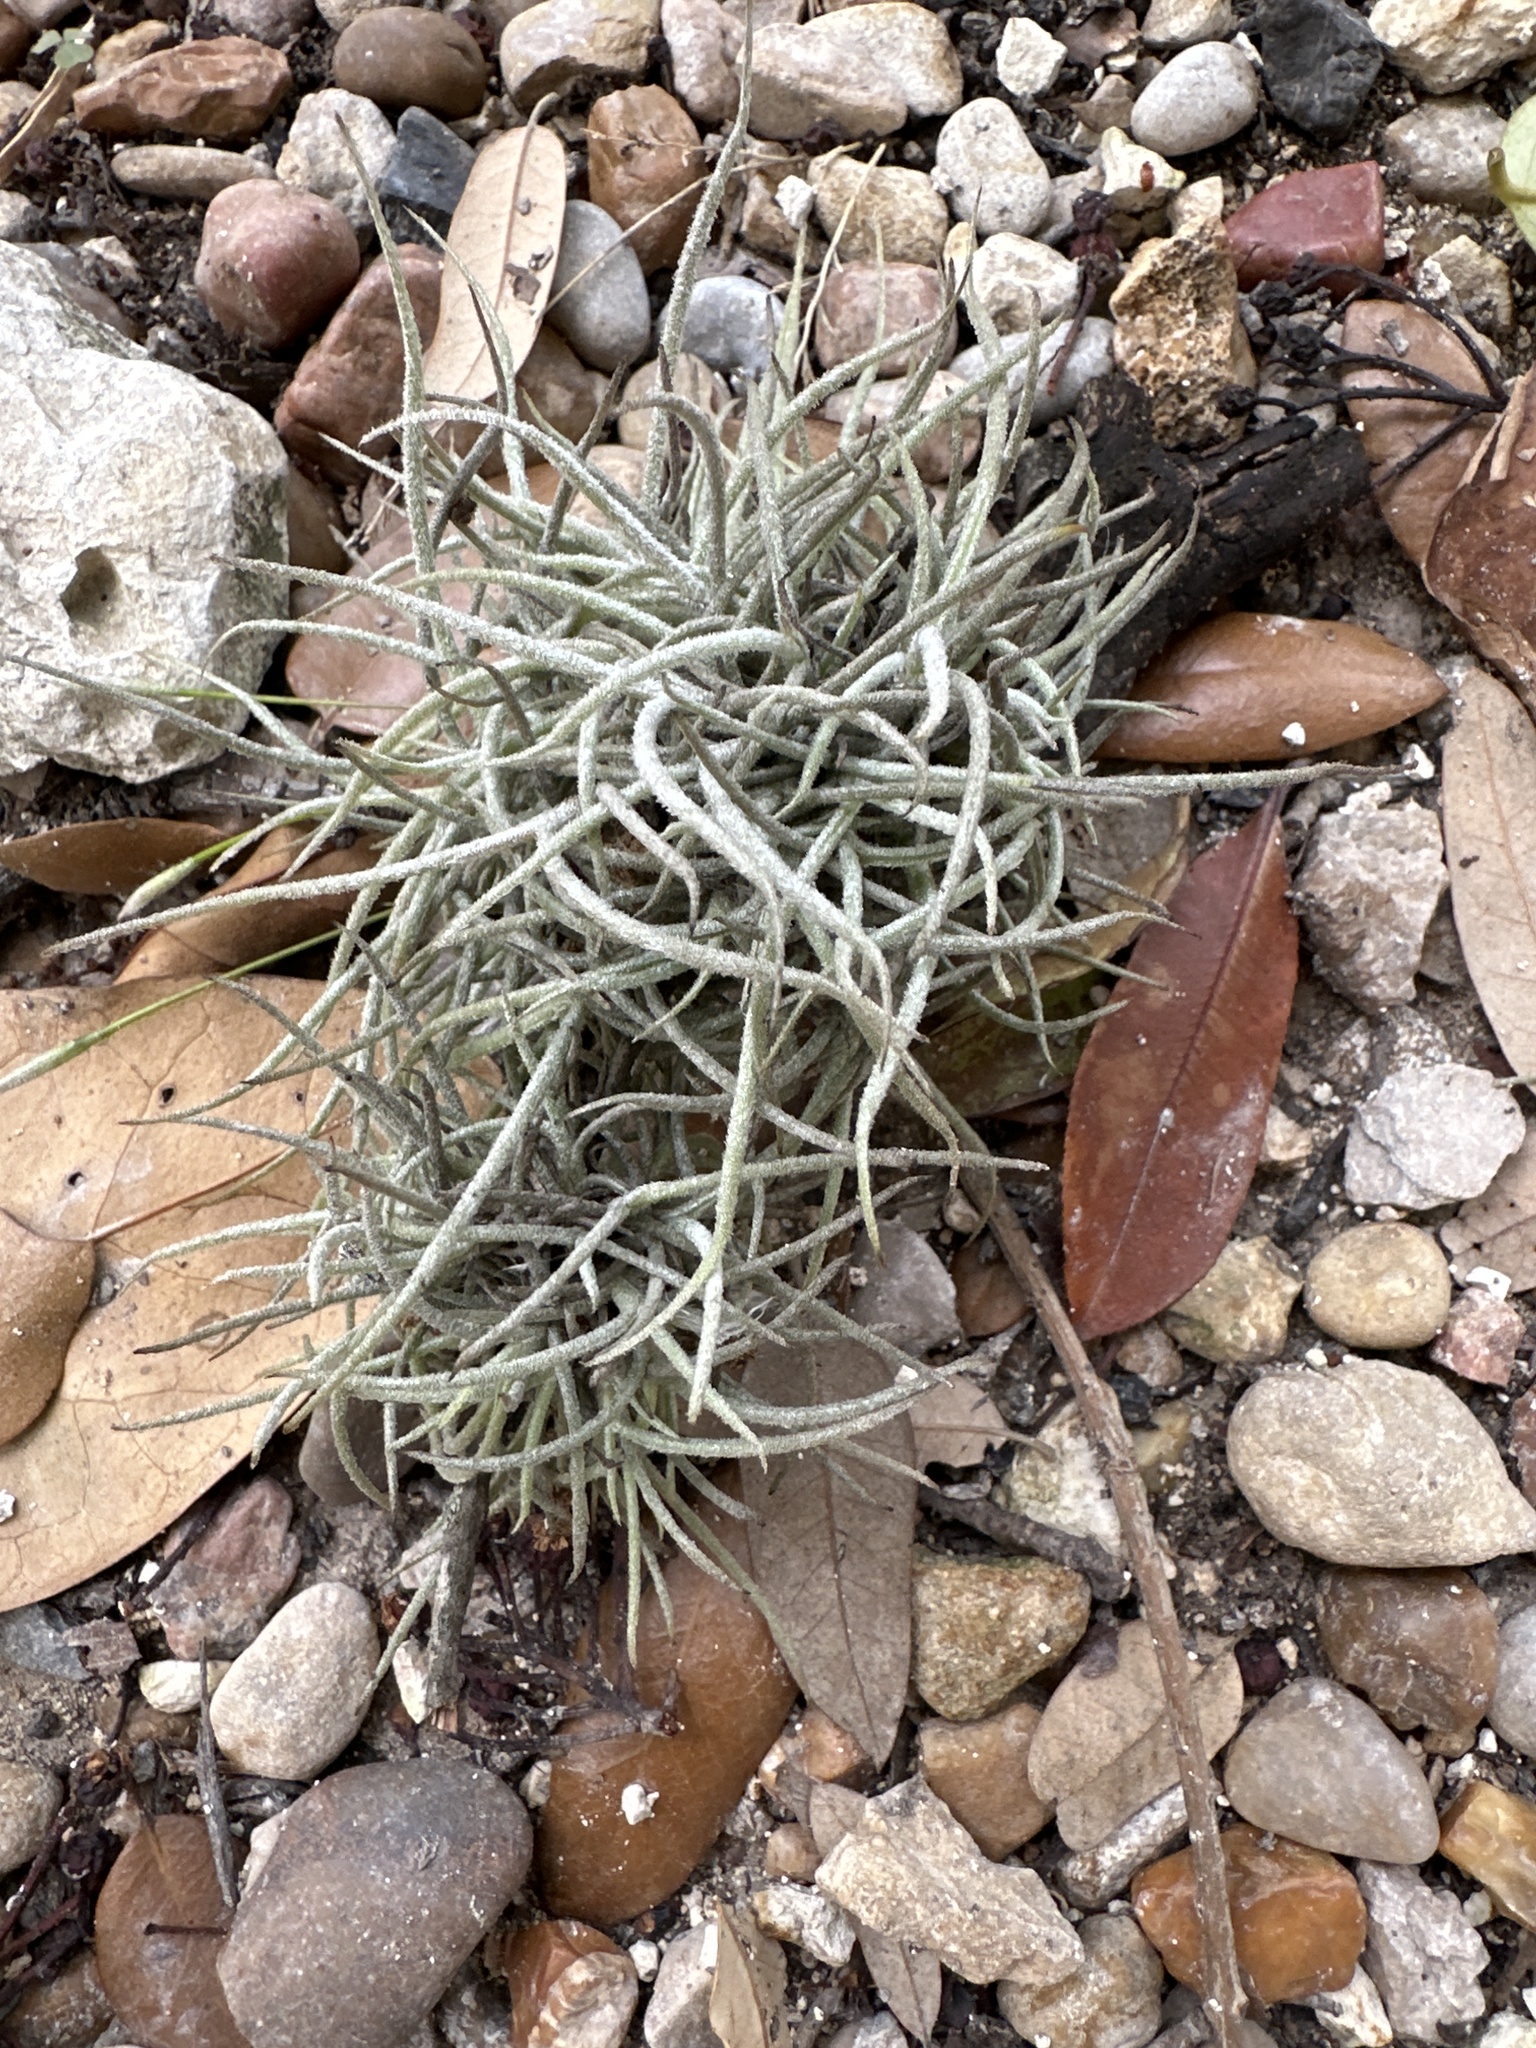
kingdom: Plantae
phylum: Tracheophyta
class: Liliopsida
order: Poales
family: Bromeliaceae
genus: Tillandsia
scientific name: Tillandsia recurvata
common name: Small ballmoss
